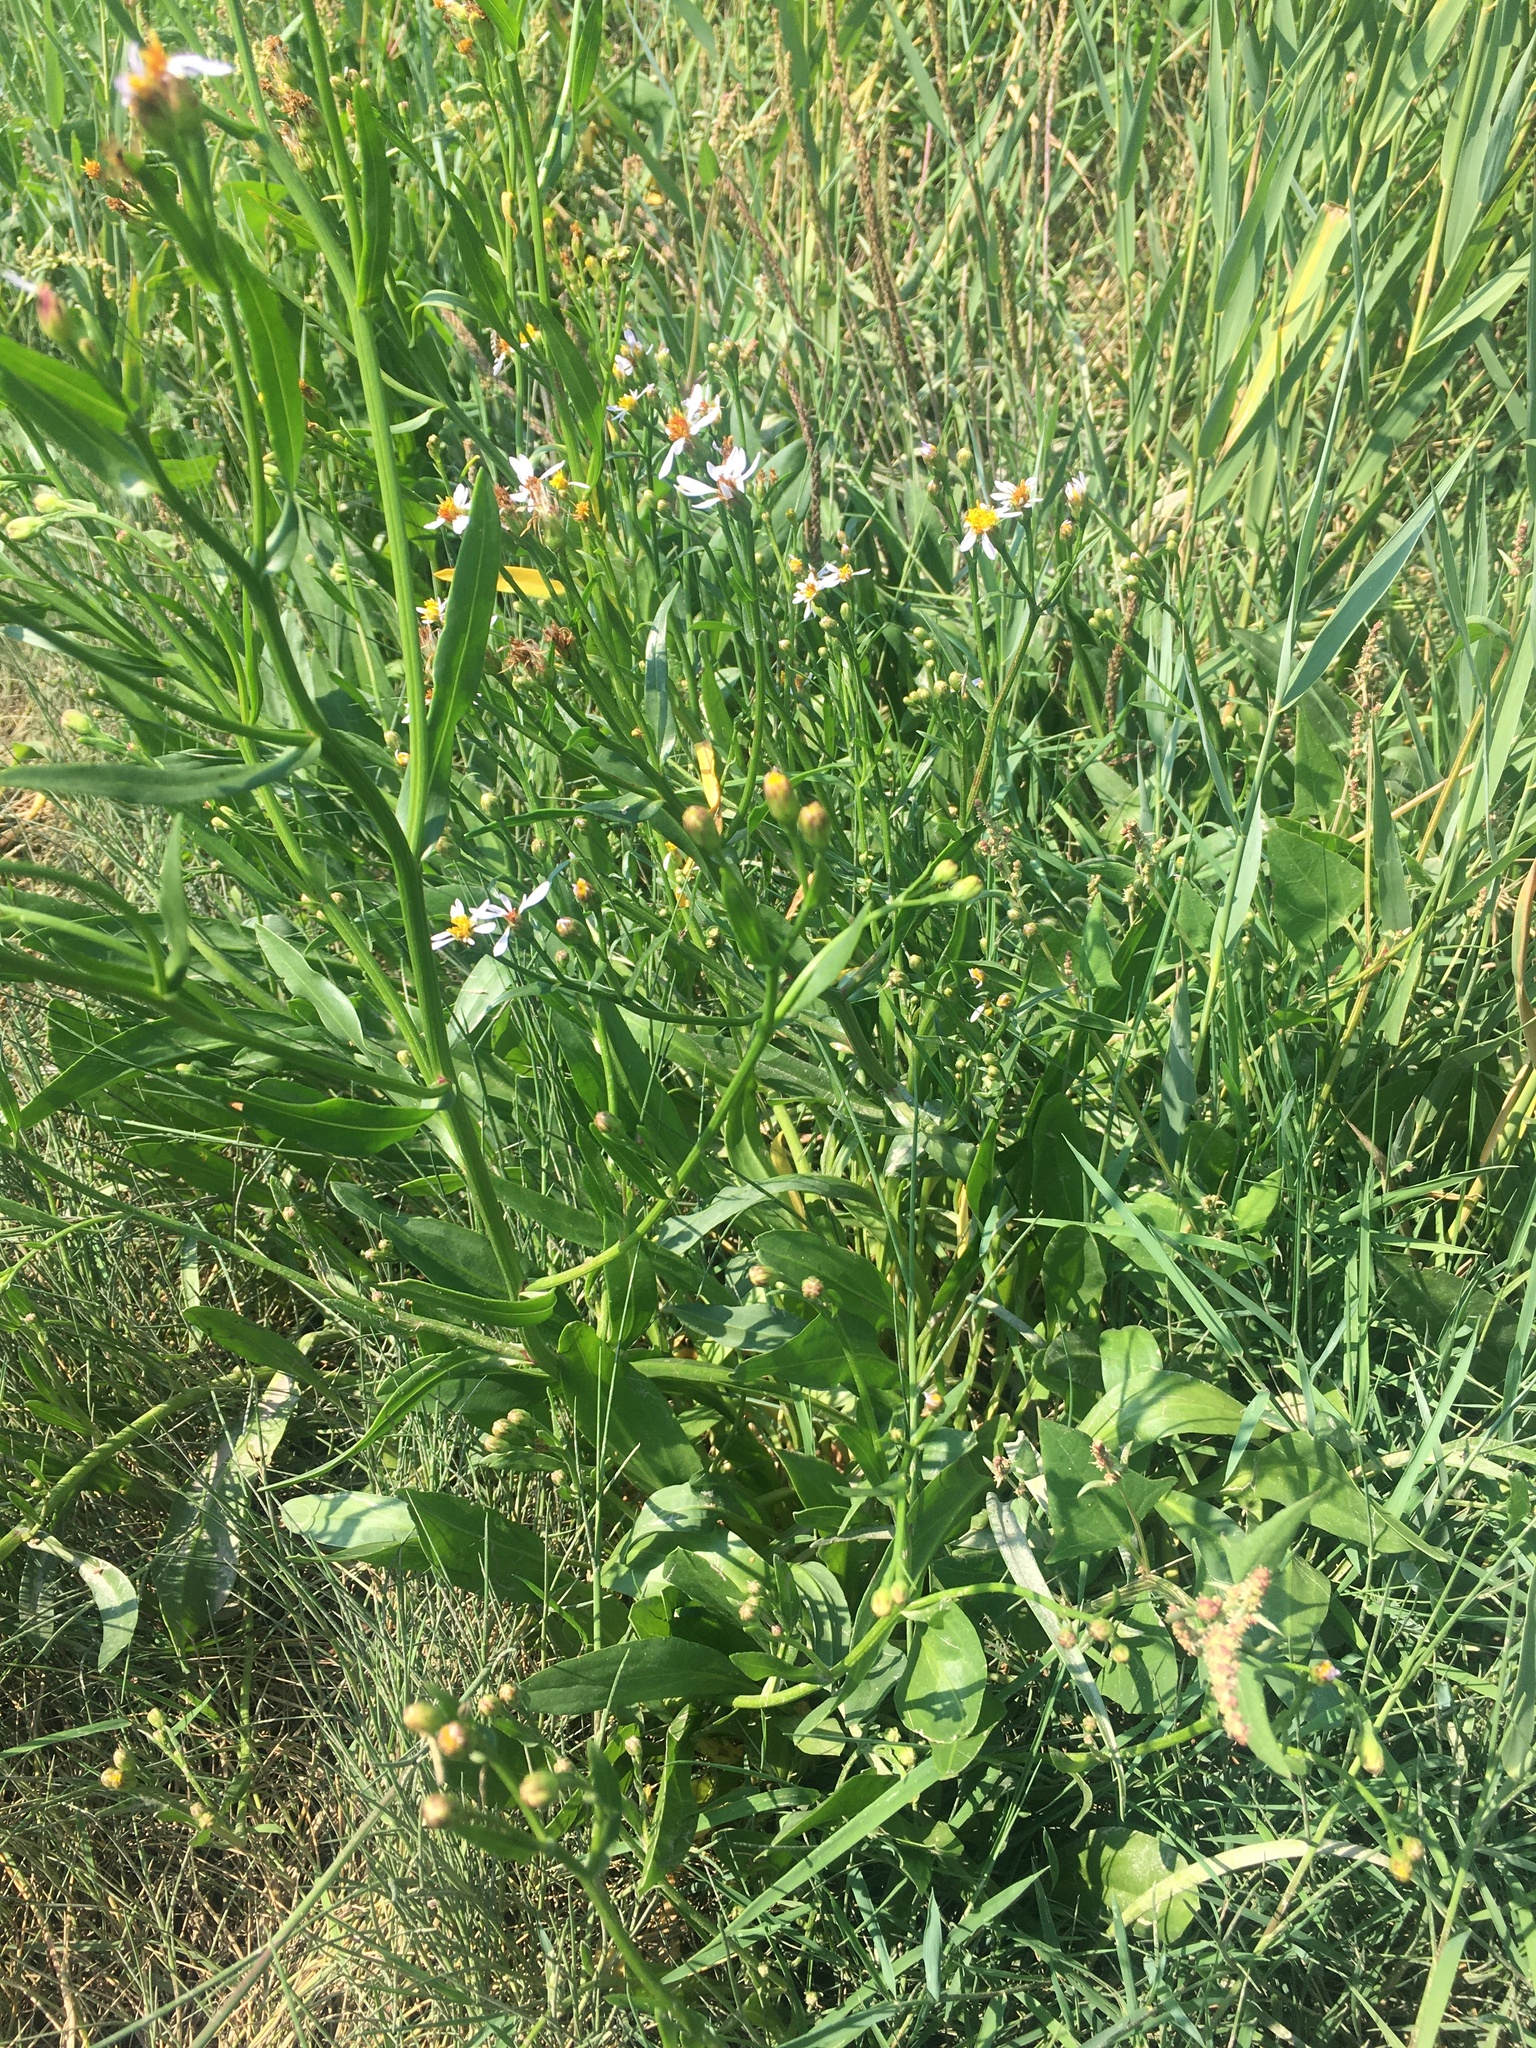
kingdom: Plantae
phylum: Tracheophyta
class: Magnoliopsida
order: Asterales
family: Asteraceae
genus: Tripolium
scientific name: Tripolium pannonicum
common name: Sea aster
